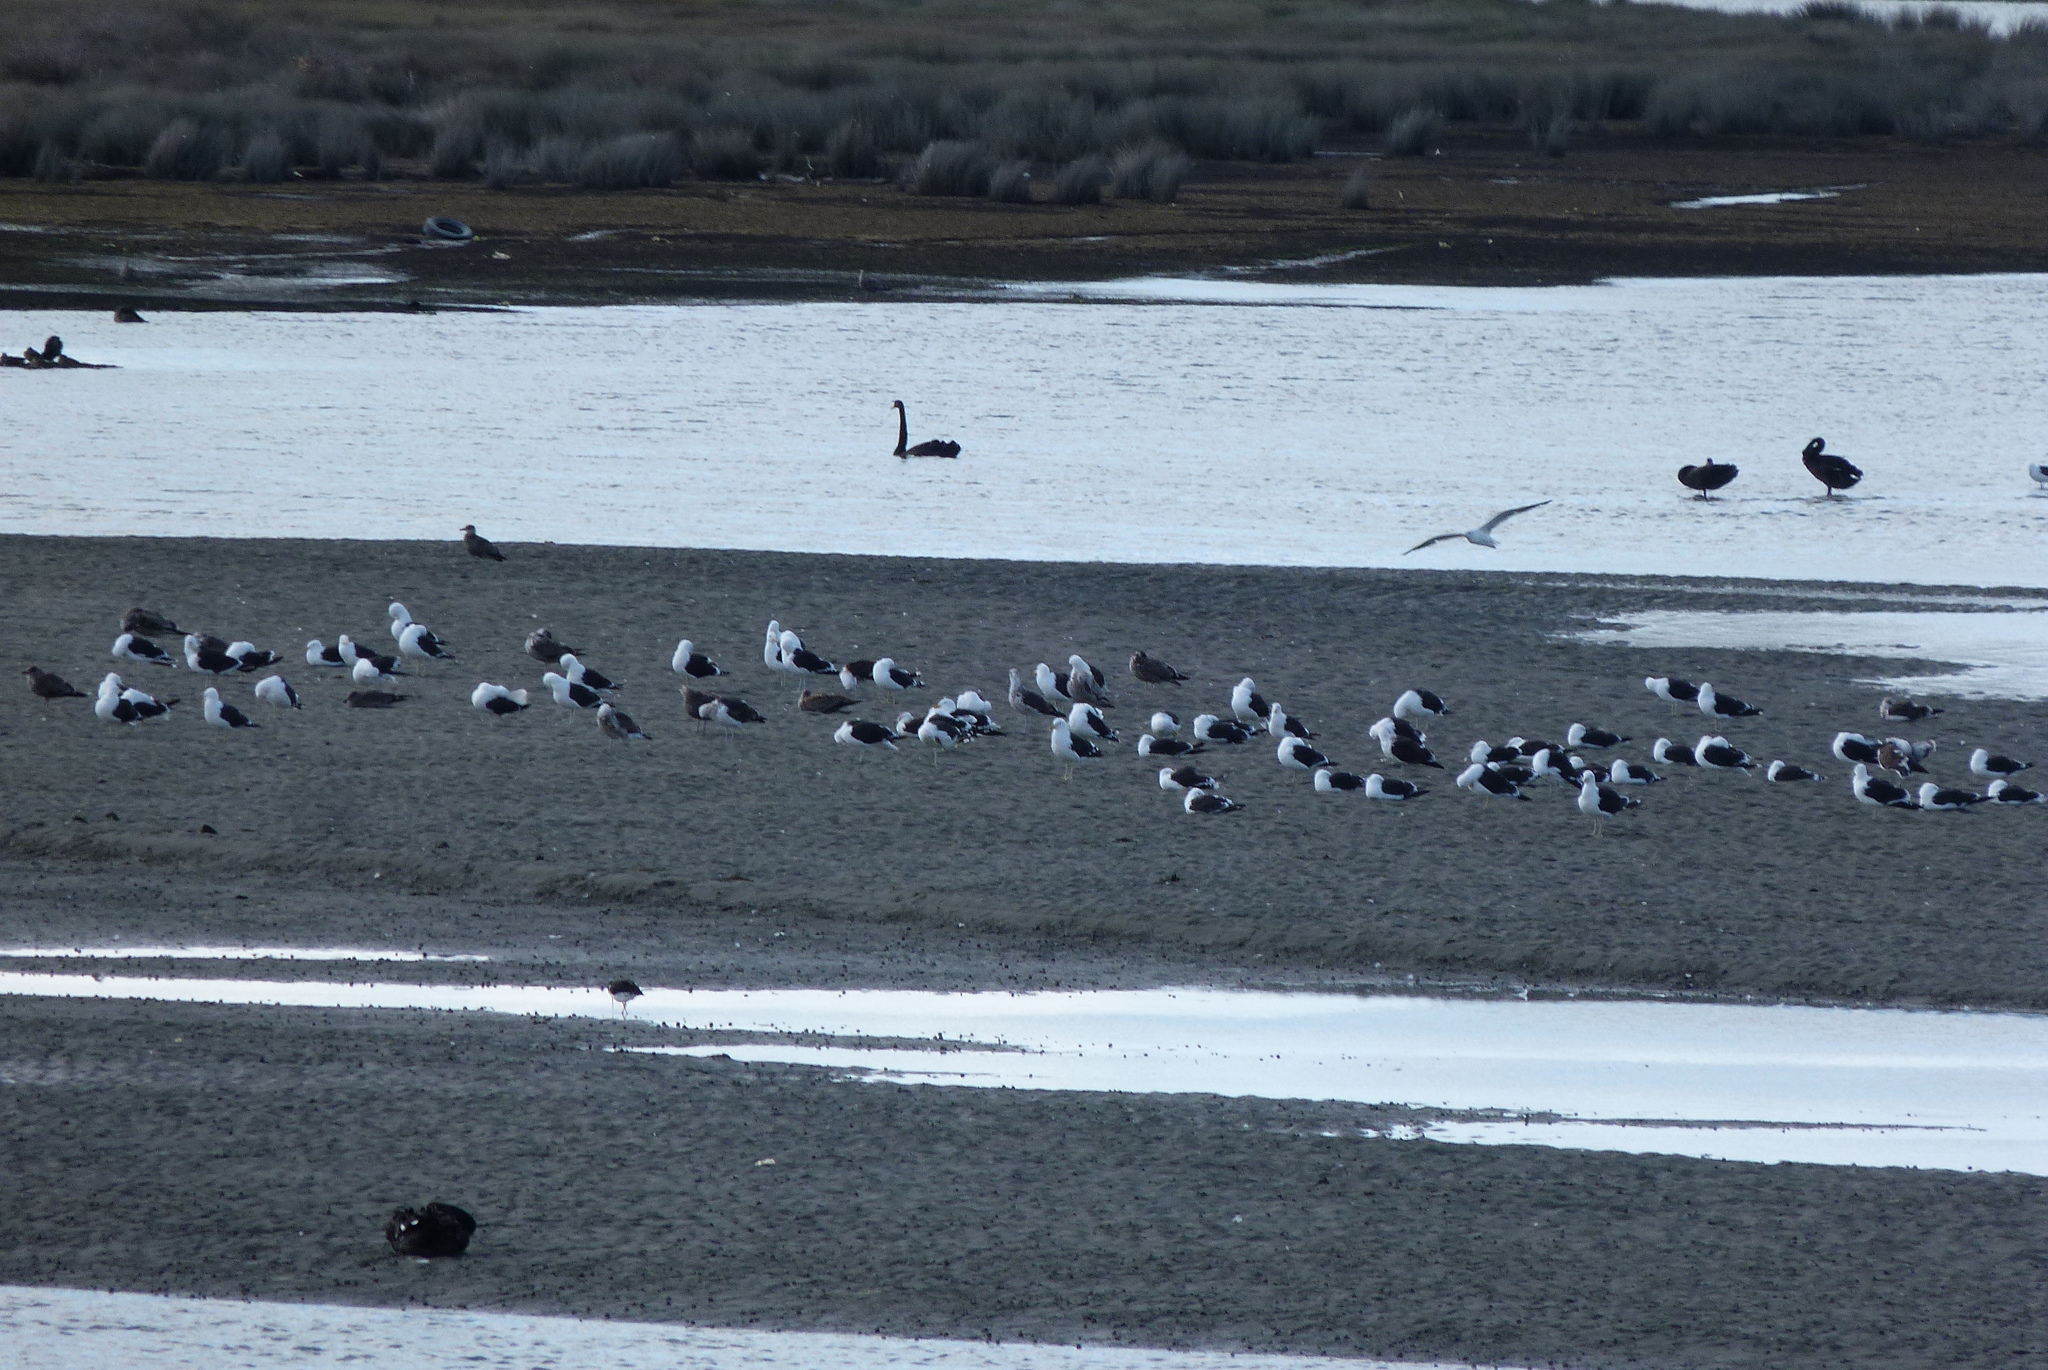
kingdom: Animalia
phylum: Chordata
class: Aves
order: Charadriiformes
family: Laridae
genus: Larus
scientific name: Larus dominicanus
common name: Kelp gull
